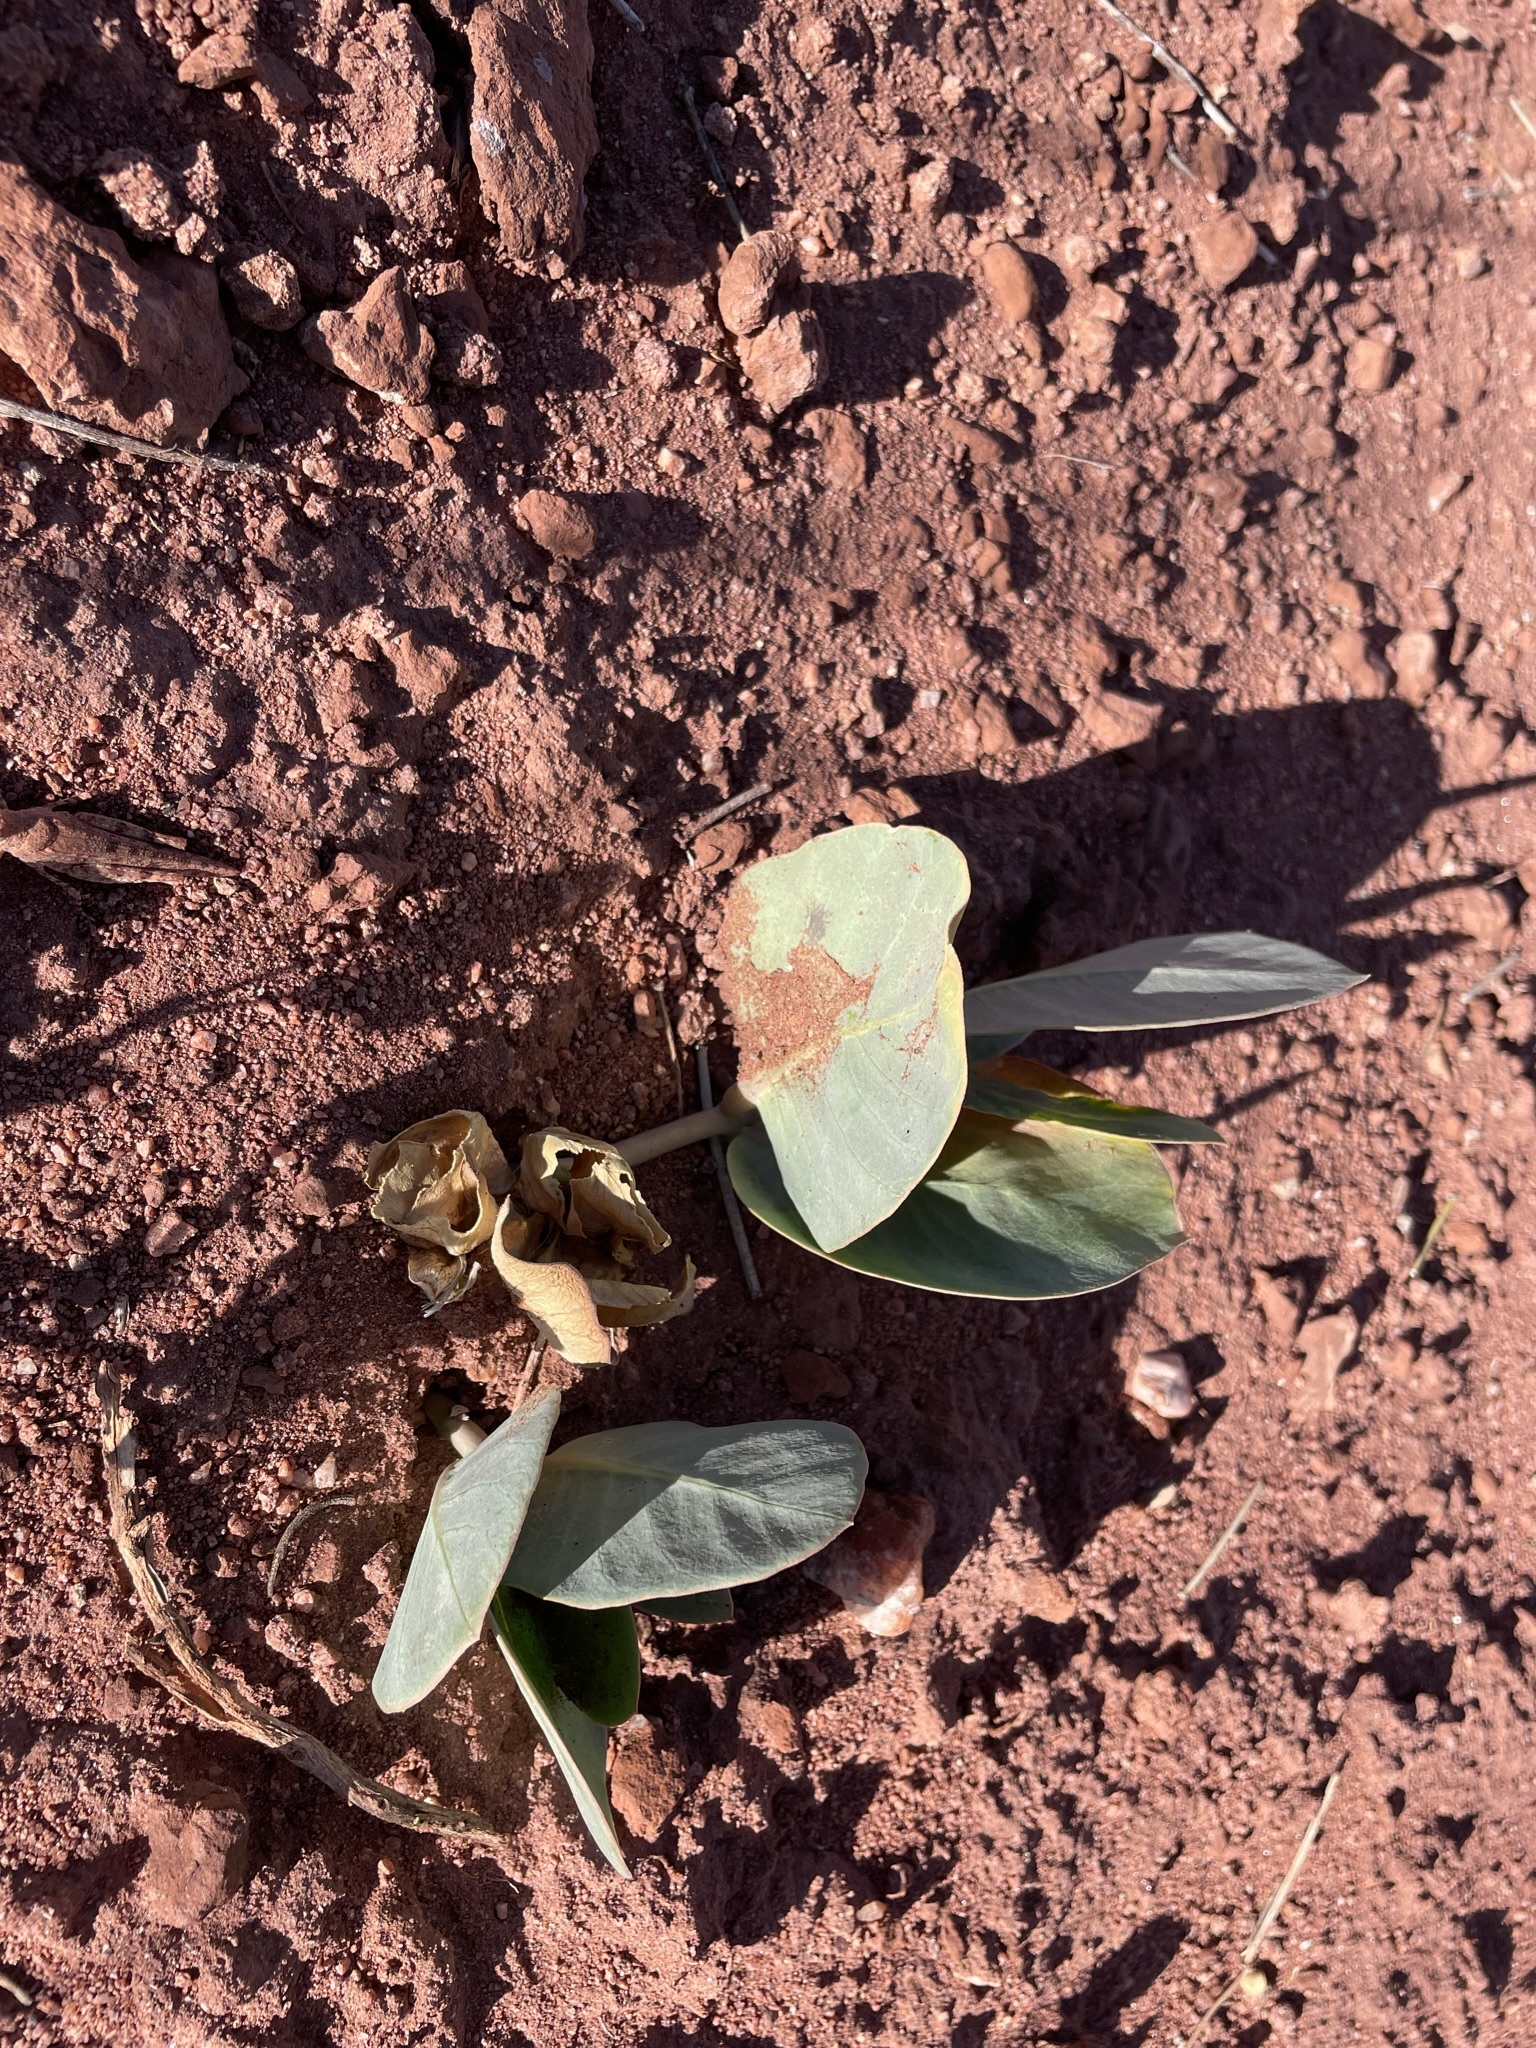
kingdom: Plantae
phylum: Tracheophyta
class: Magnoliopsida
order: Gentianales
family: Apocynaceae
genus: Asclepias
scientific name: Asclepias cryptoceras
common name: Humboldt mountains milkweed
